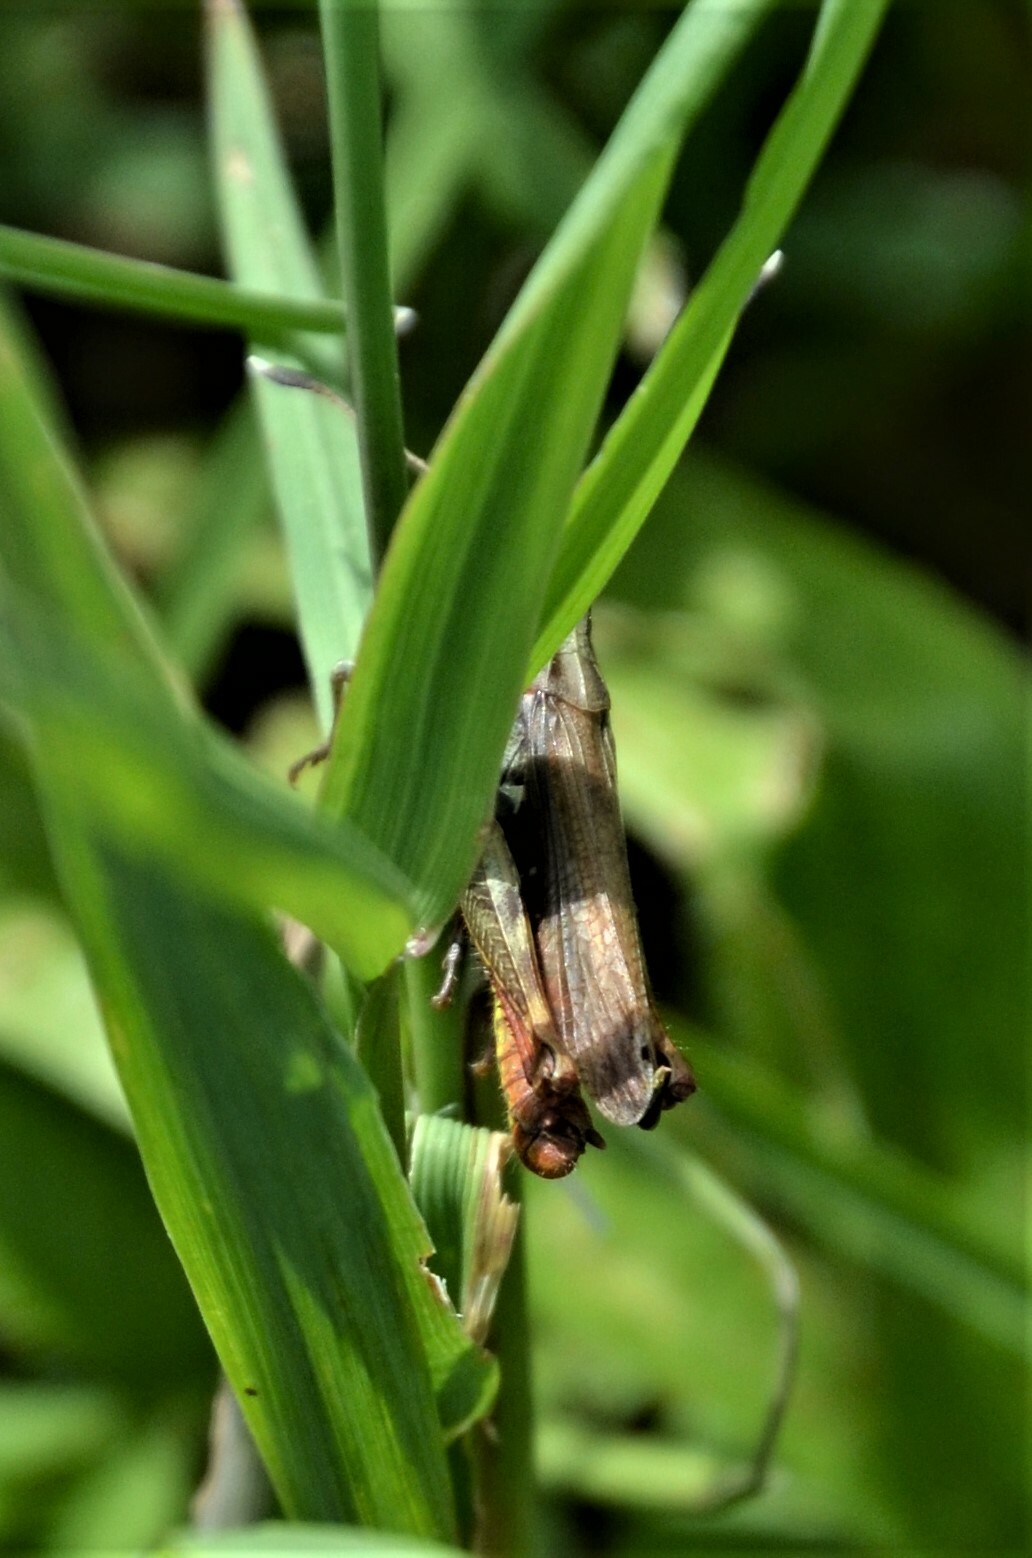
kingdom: Animalia
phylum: Arthropoda
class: Insecta
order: Orthoptera
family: Acrididae
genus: Gomphocerippus
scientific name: Gomphocerippus rufus
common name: Rufous grasshopper
